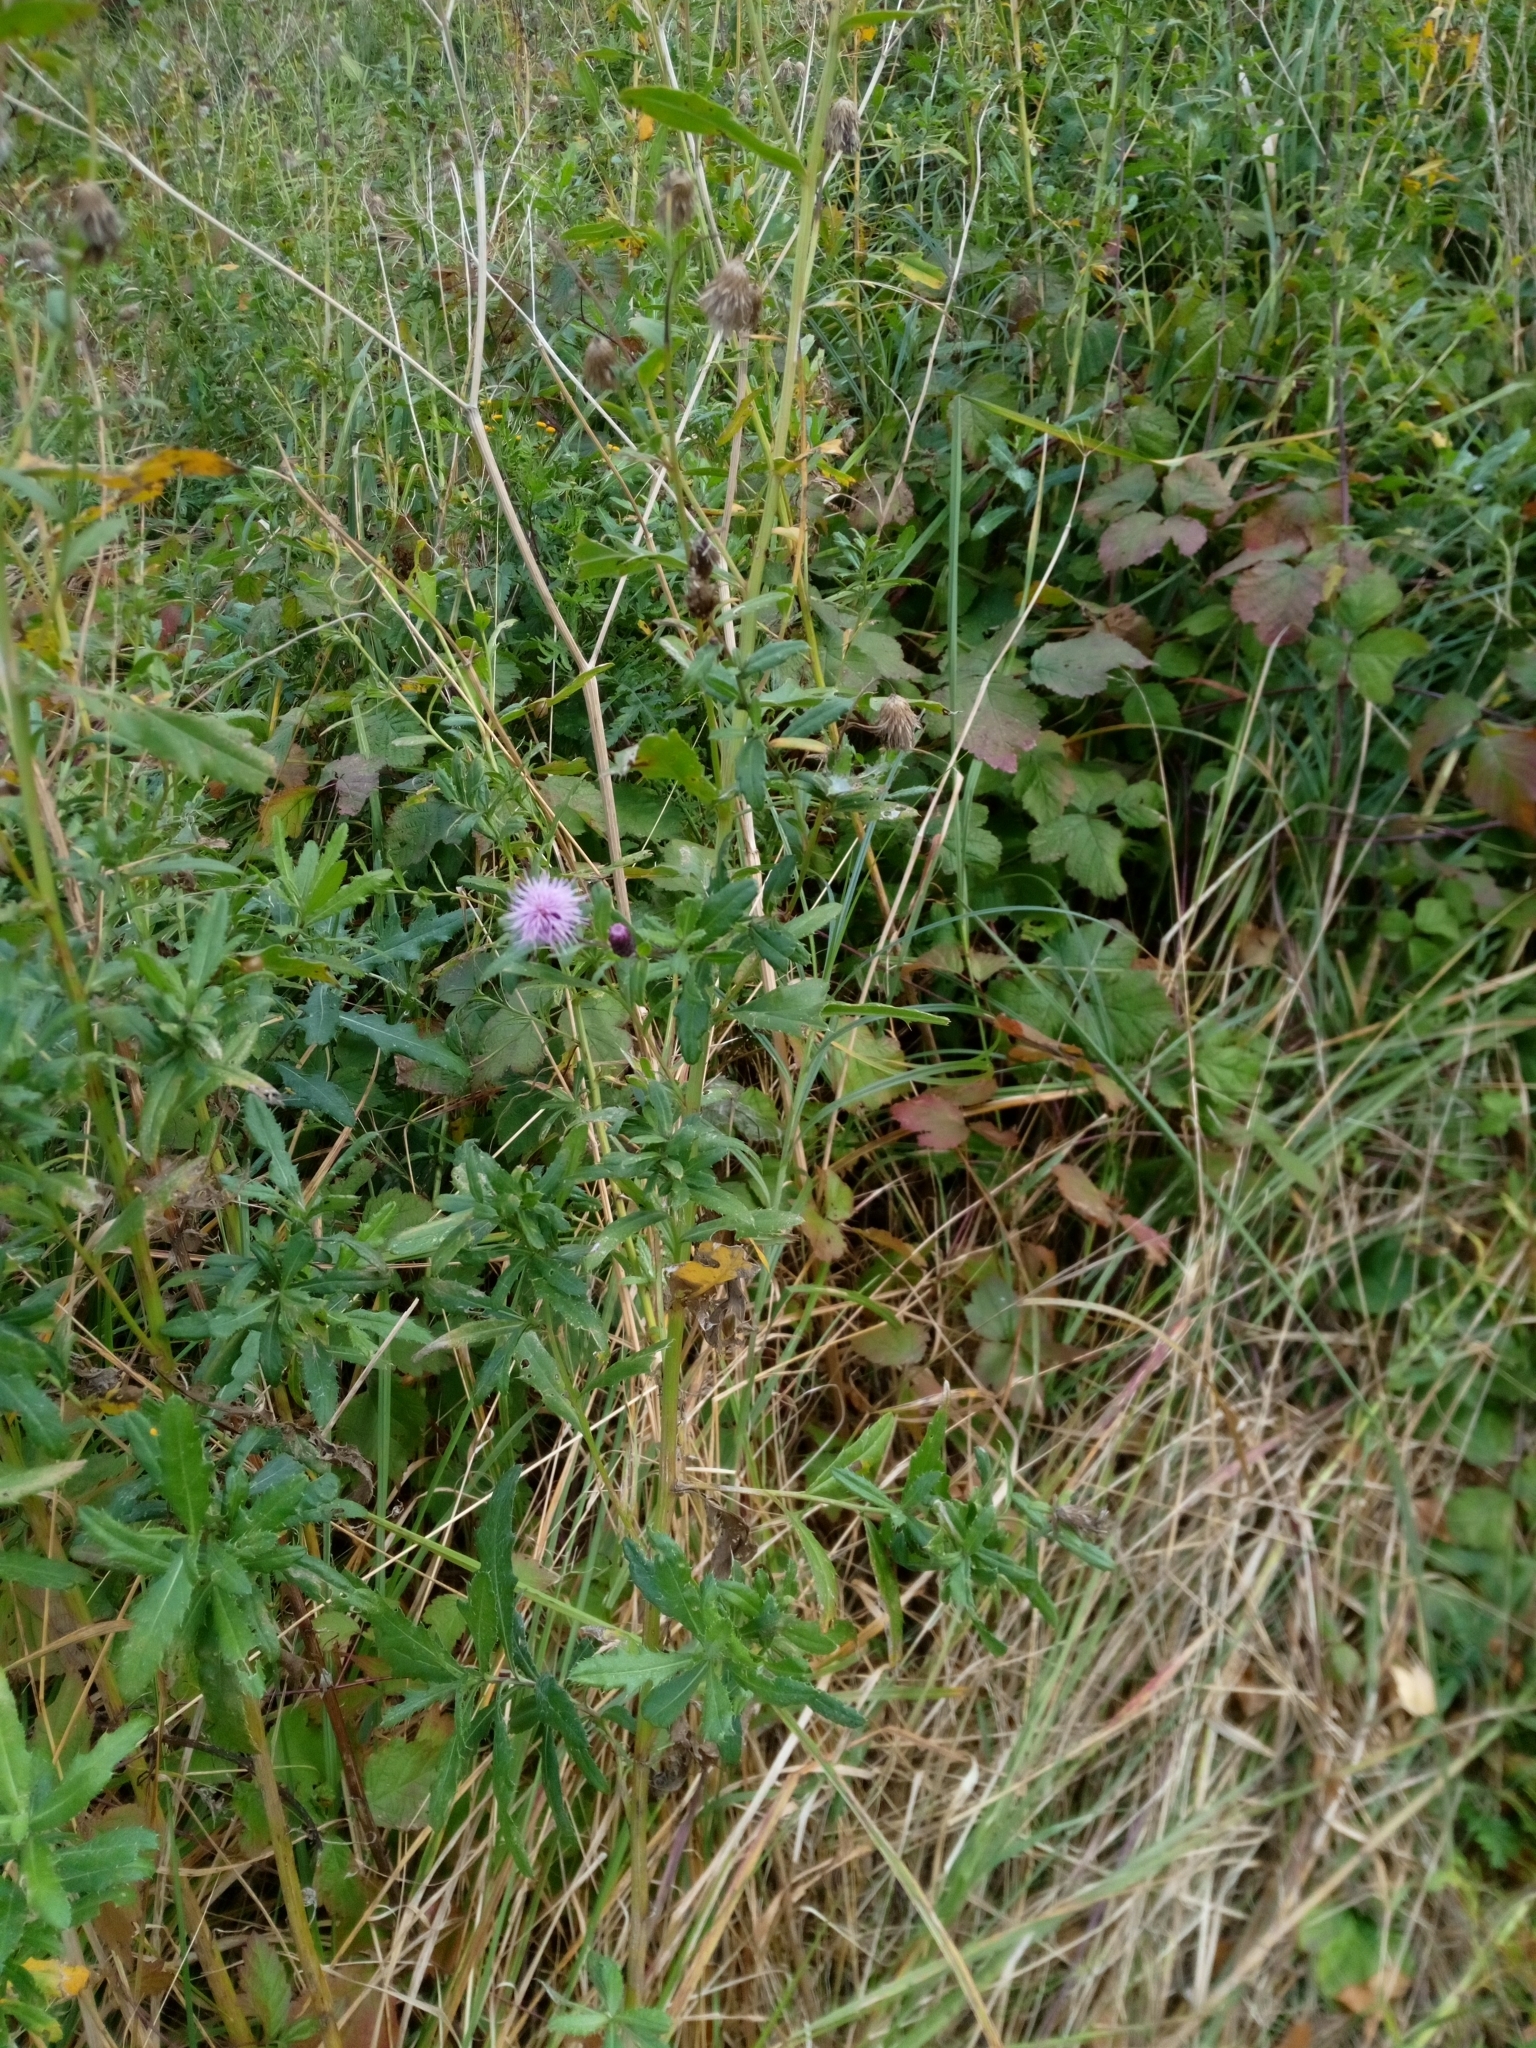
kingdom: Plantae
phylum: Tracheophyta
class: Magnoliopsida
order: Asterales
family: Asteraceae
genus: Cirsium
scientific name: Cirsium arvense
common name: Creeping thistle
